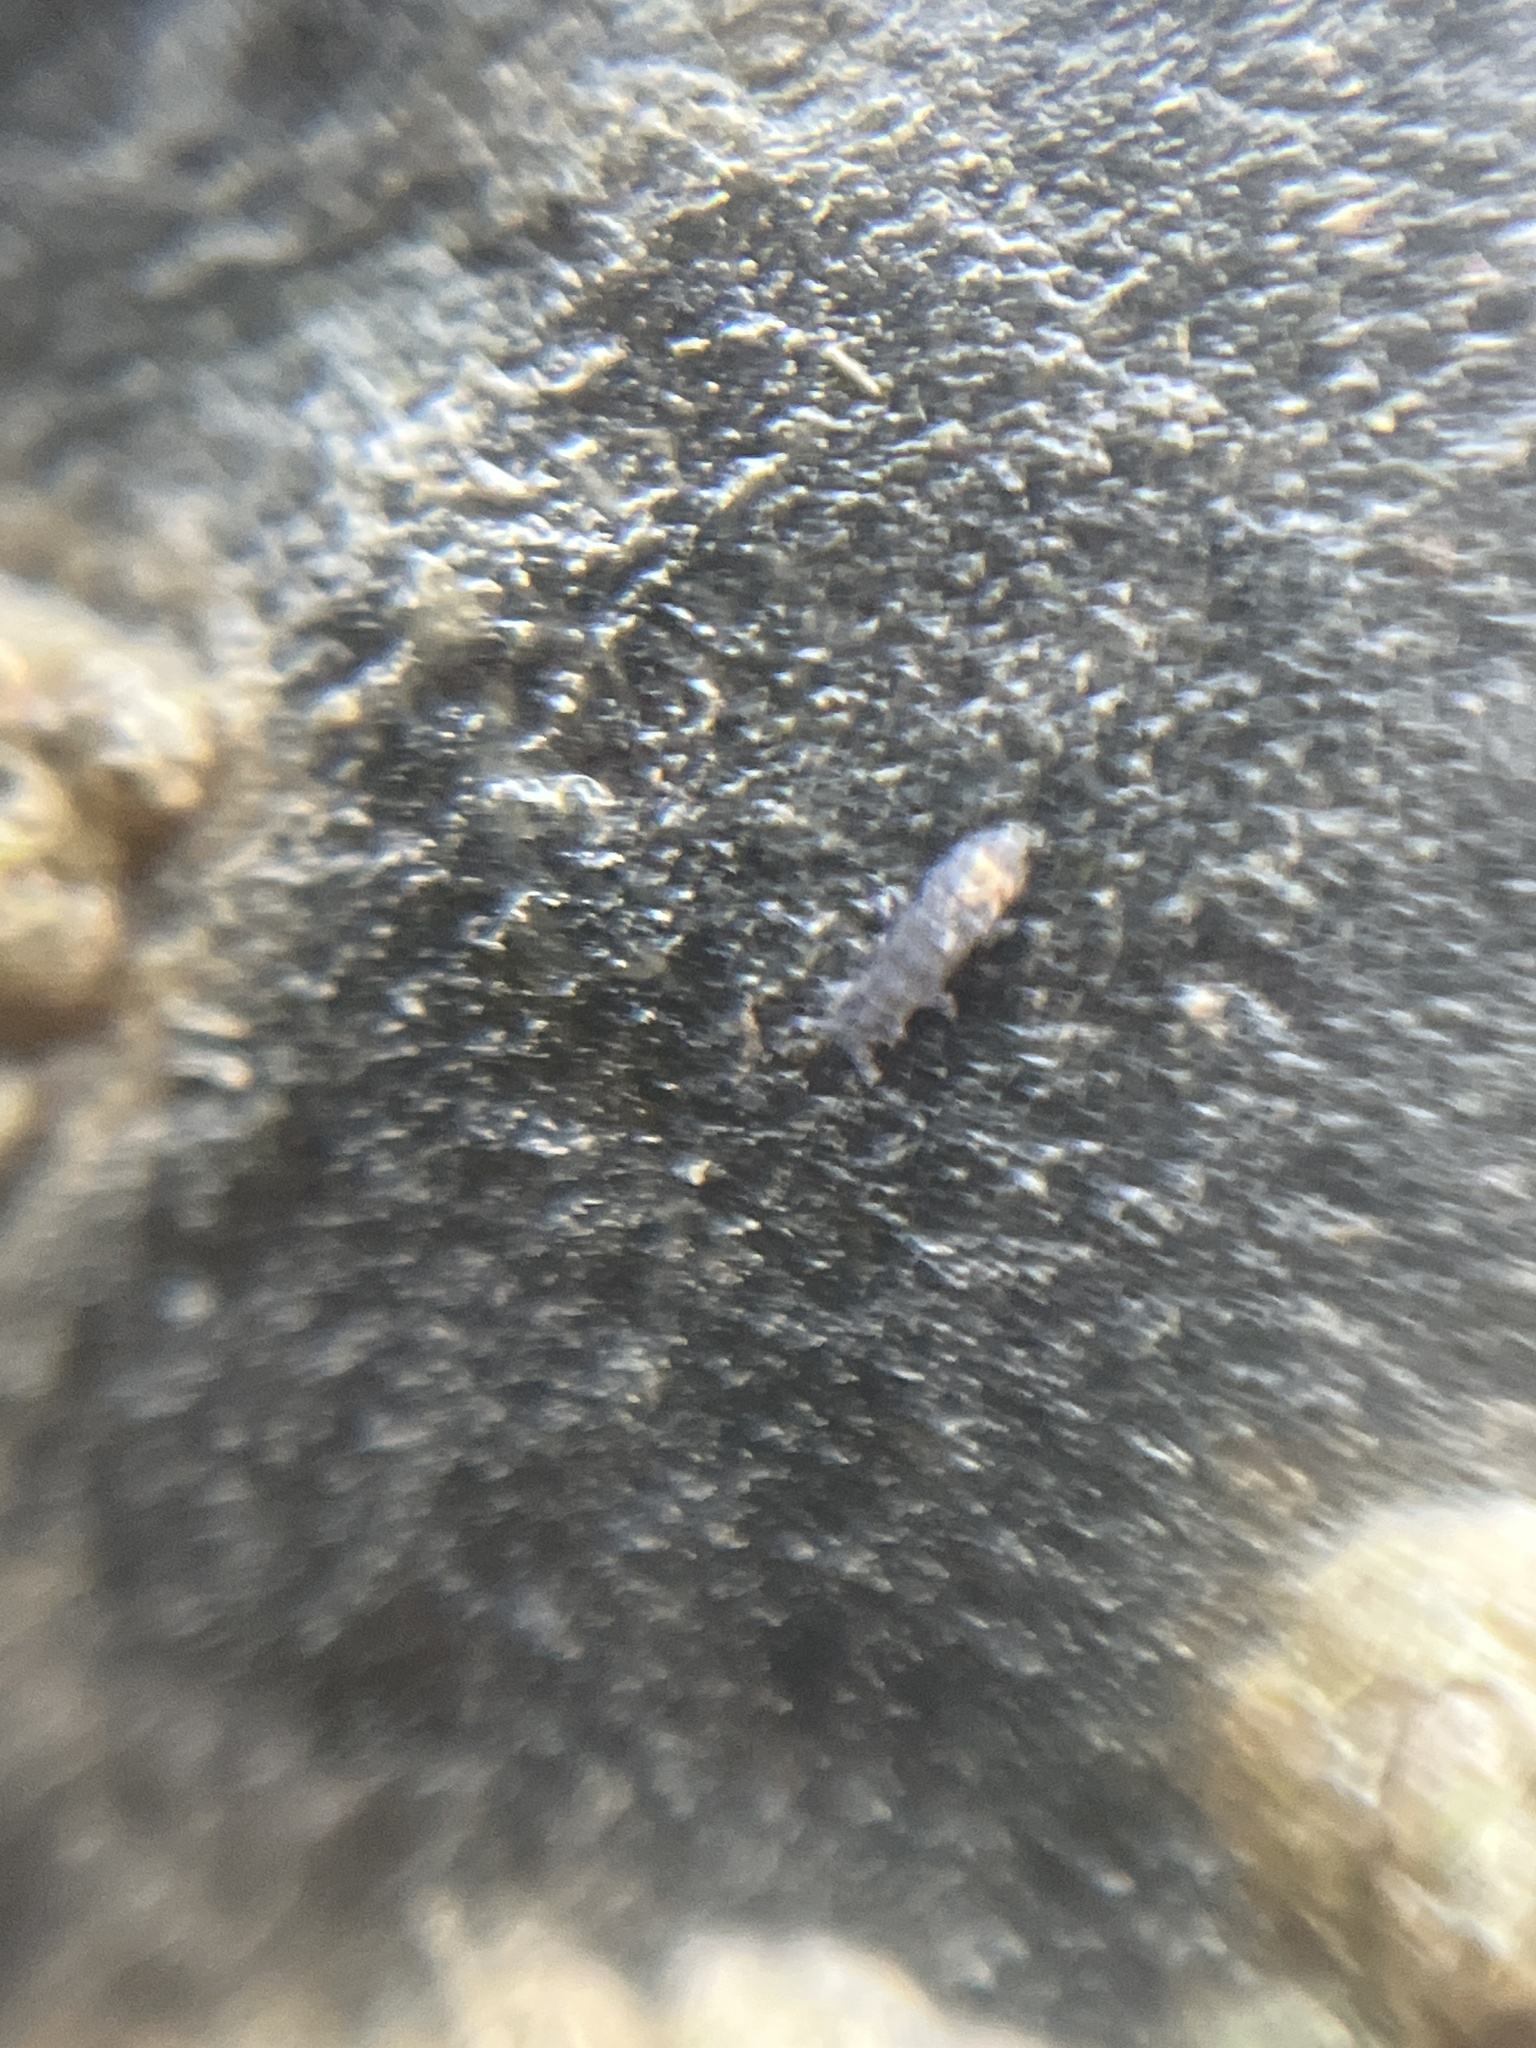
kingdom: Animalia
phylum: Arthropoda
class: Collembola
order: Poduromorpha
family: Neanuridae
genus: Anurida
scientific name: Anurida maritima
